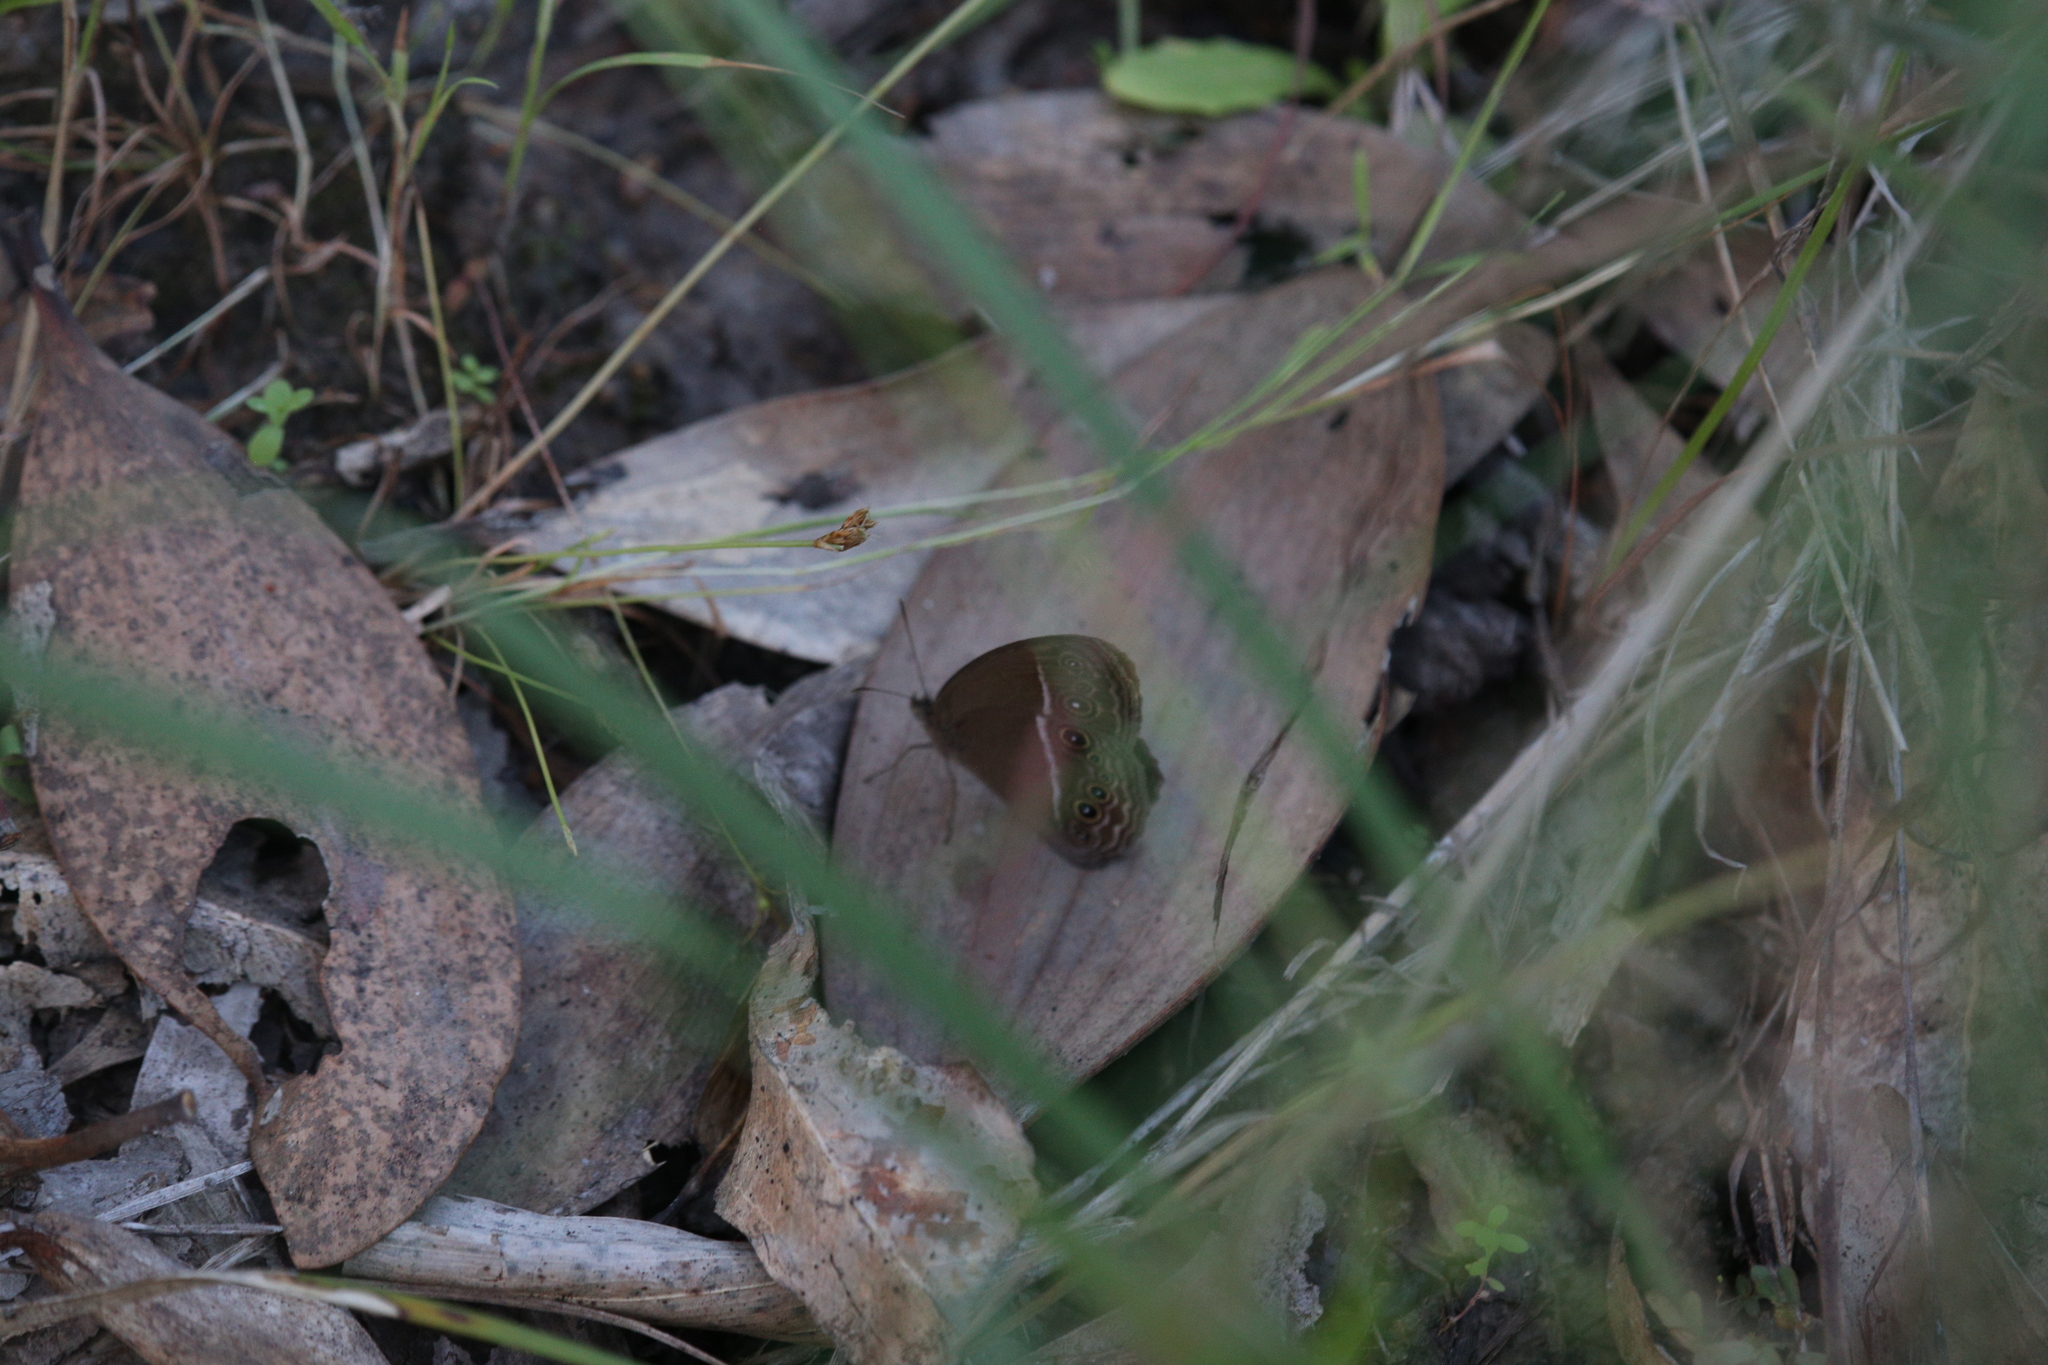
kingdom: Animalia
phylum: Arthropoda
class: Insecta
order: Lepidoptera
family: Nymphalidae
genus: Mycalesis
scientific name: Mycalesis perseus
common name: Dingy bushbrown
